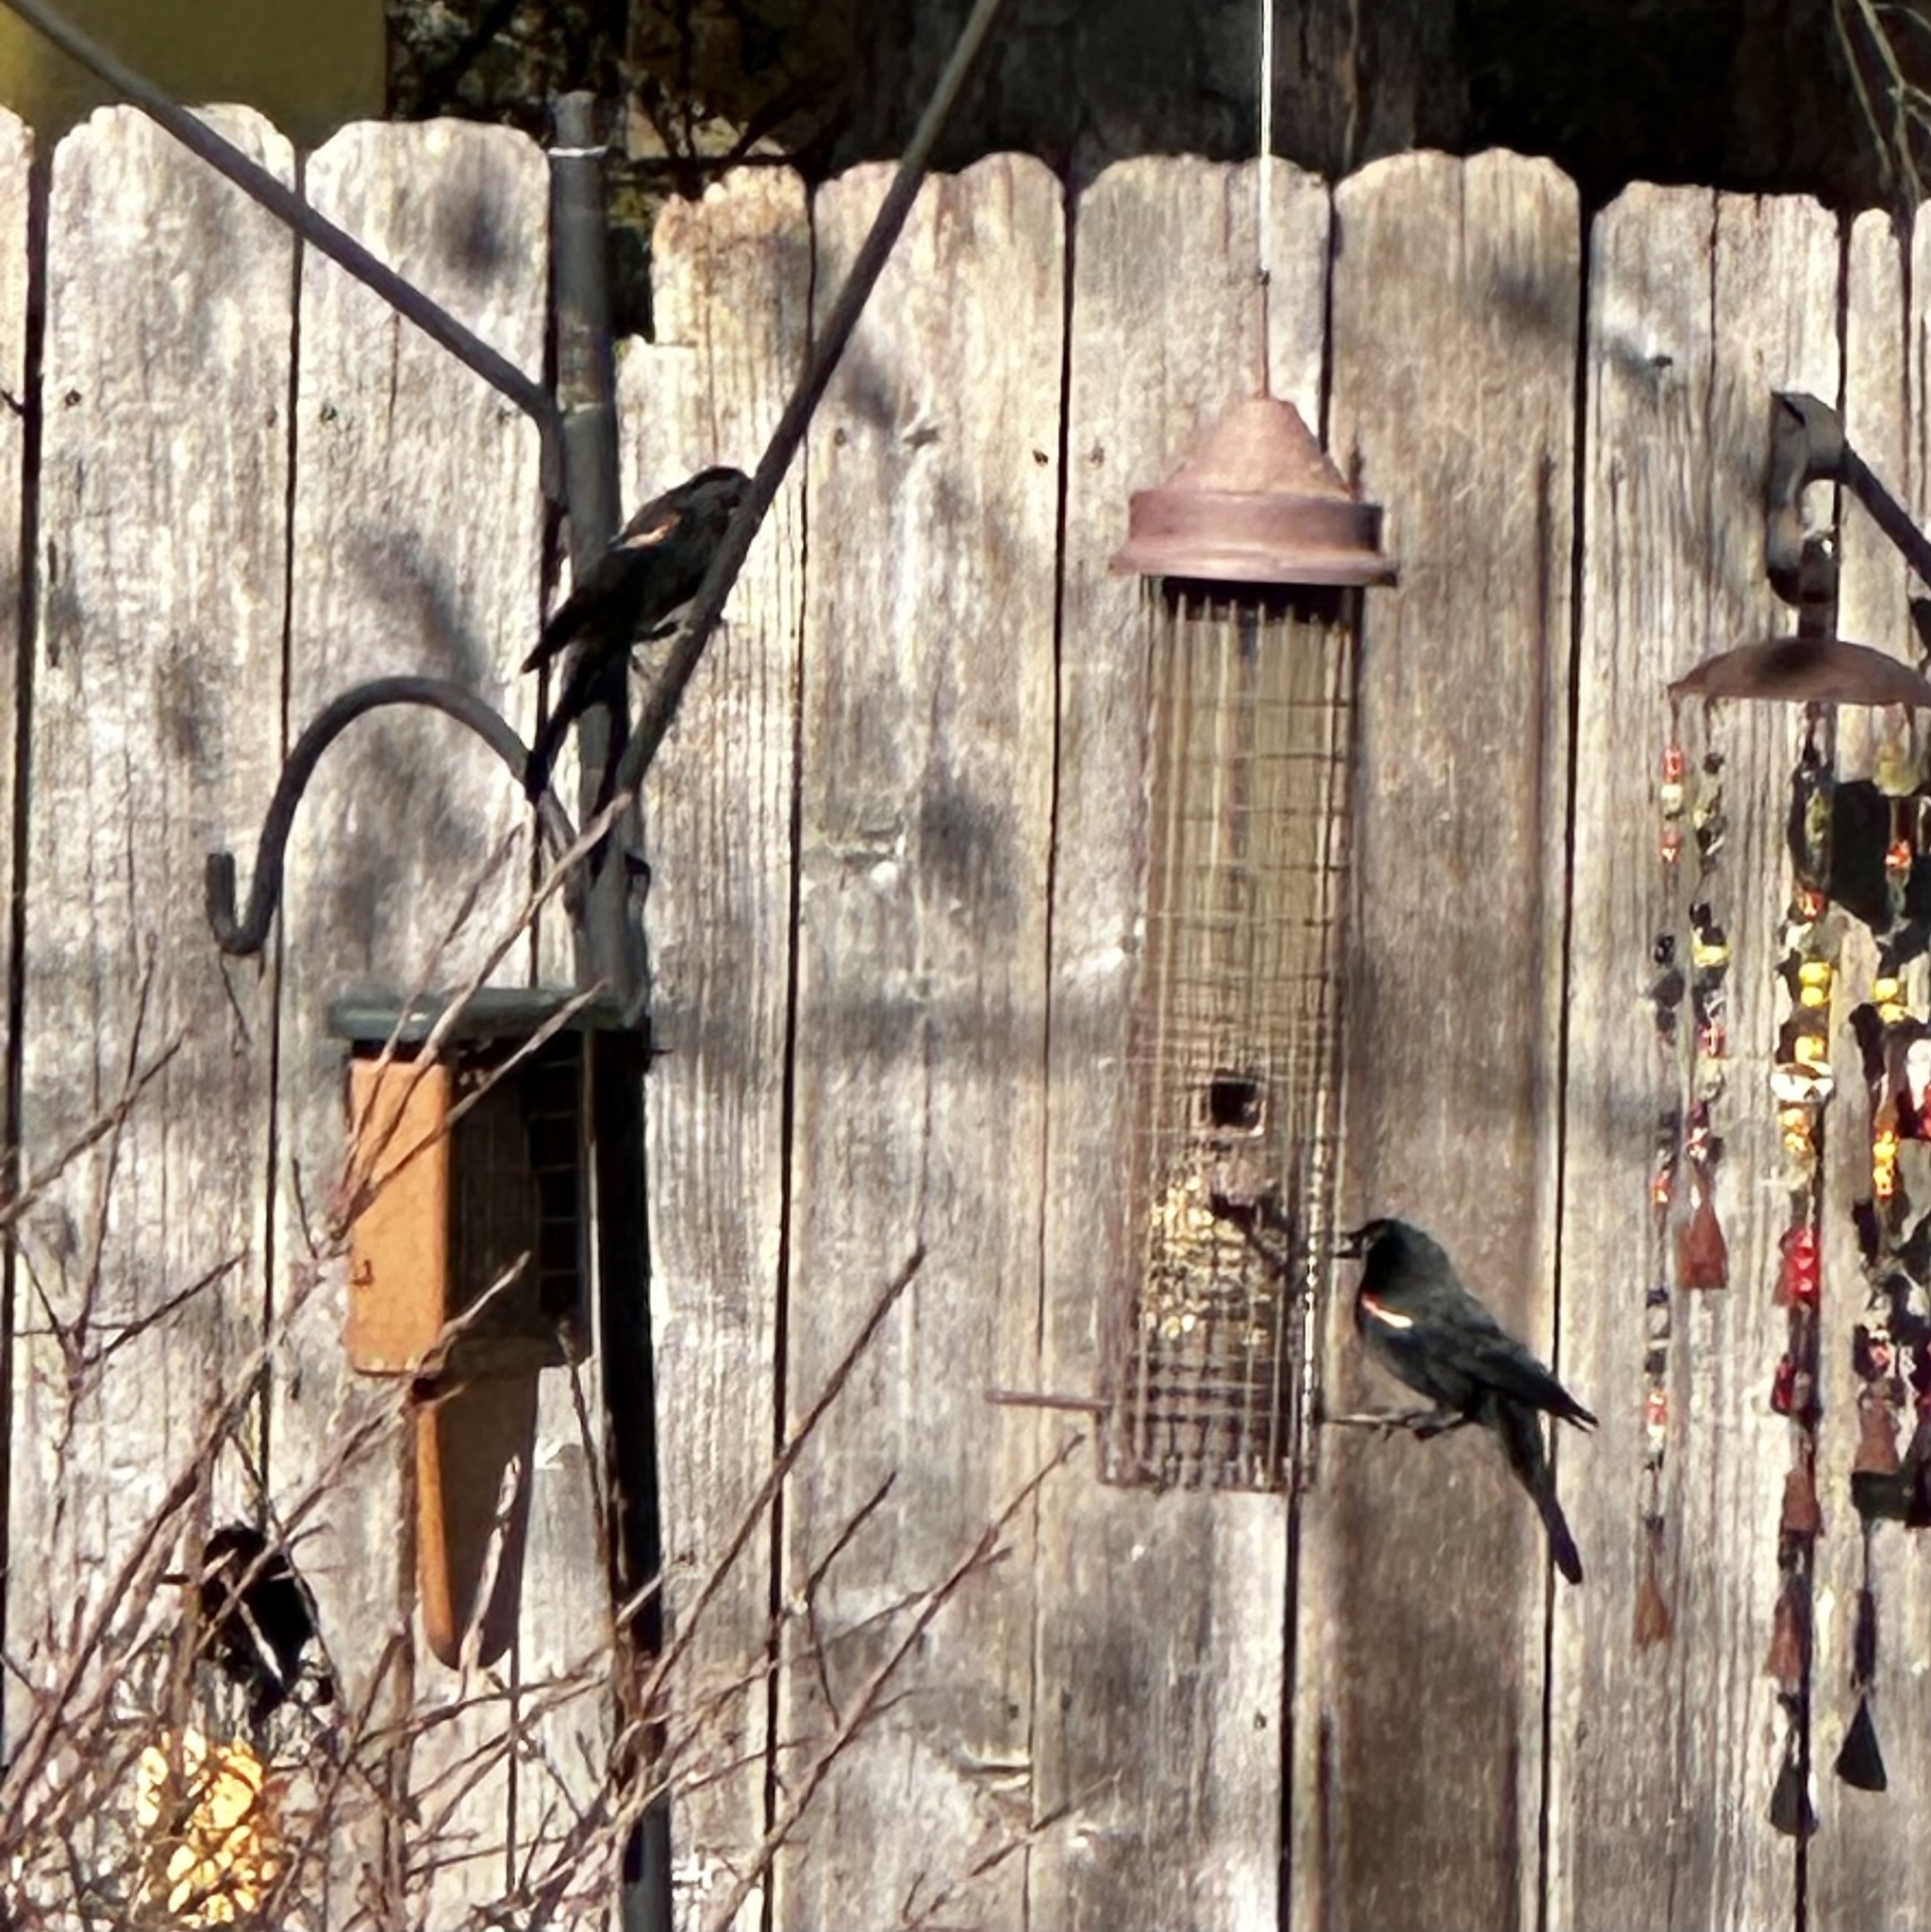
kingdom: Animalia
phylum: Chordata
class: Aves
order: Passeriformes
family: Icteridae
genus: Agelaius
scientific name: Agelaius phoeniceus
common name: Red-winged blackbird
